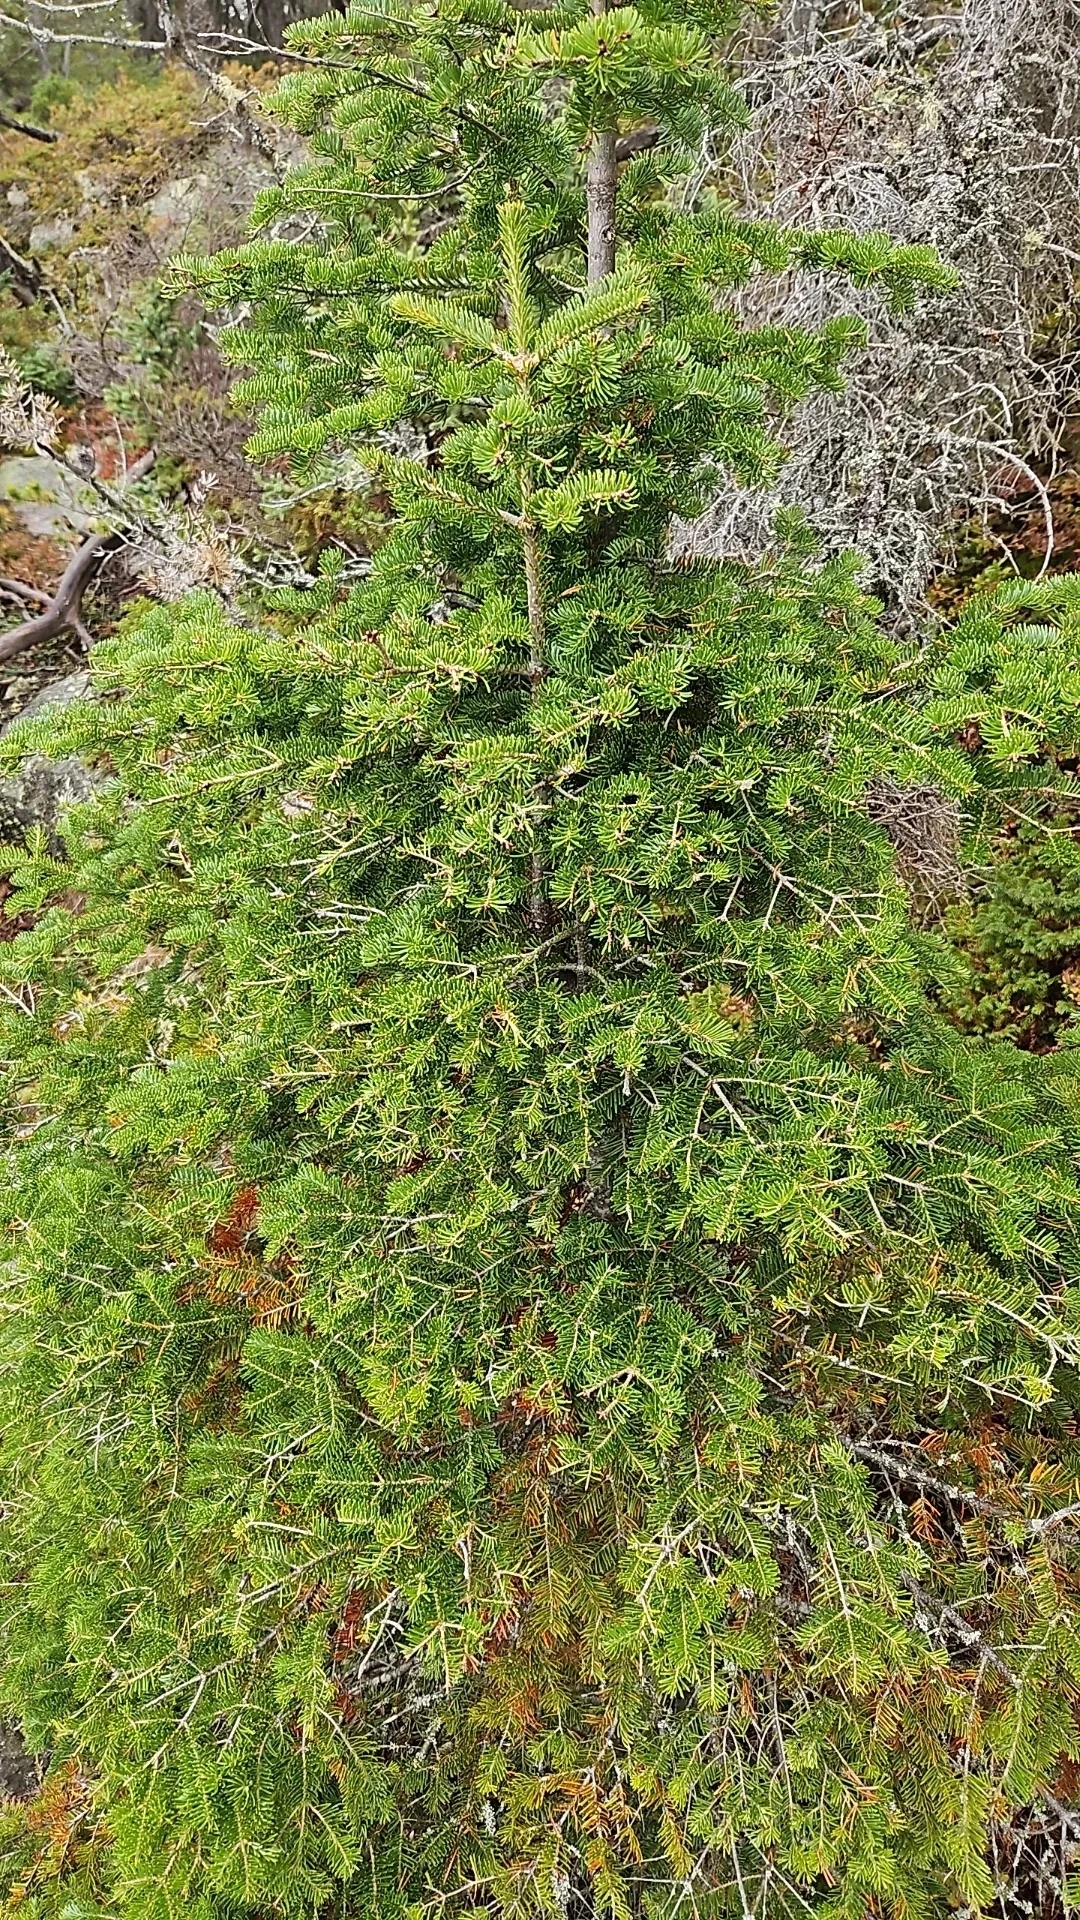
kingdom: Plantae
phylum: Tracheophyta
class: Pinopsida
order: Pinales
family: Pinaceae
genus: Abies
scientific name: Abies balsamea
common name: Balsam fir
